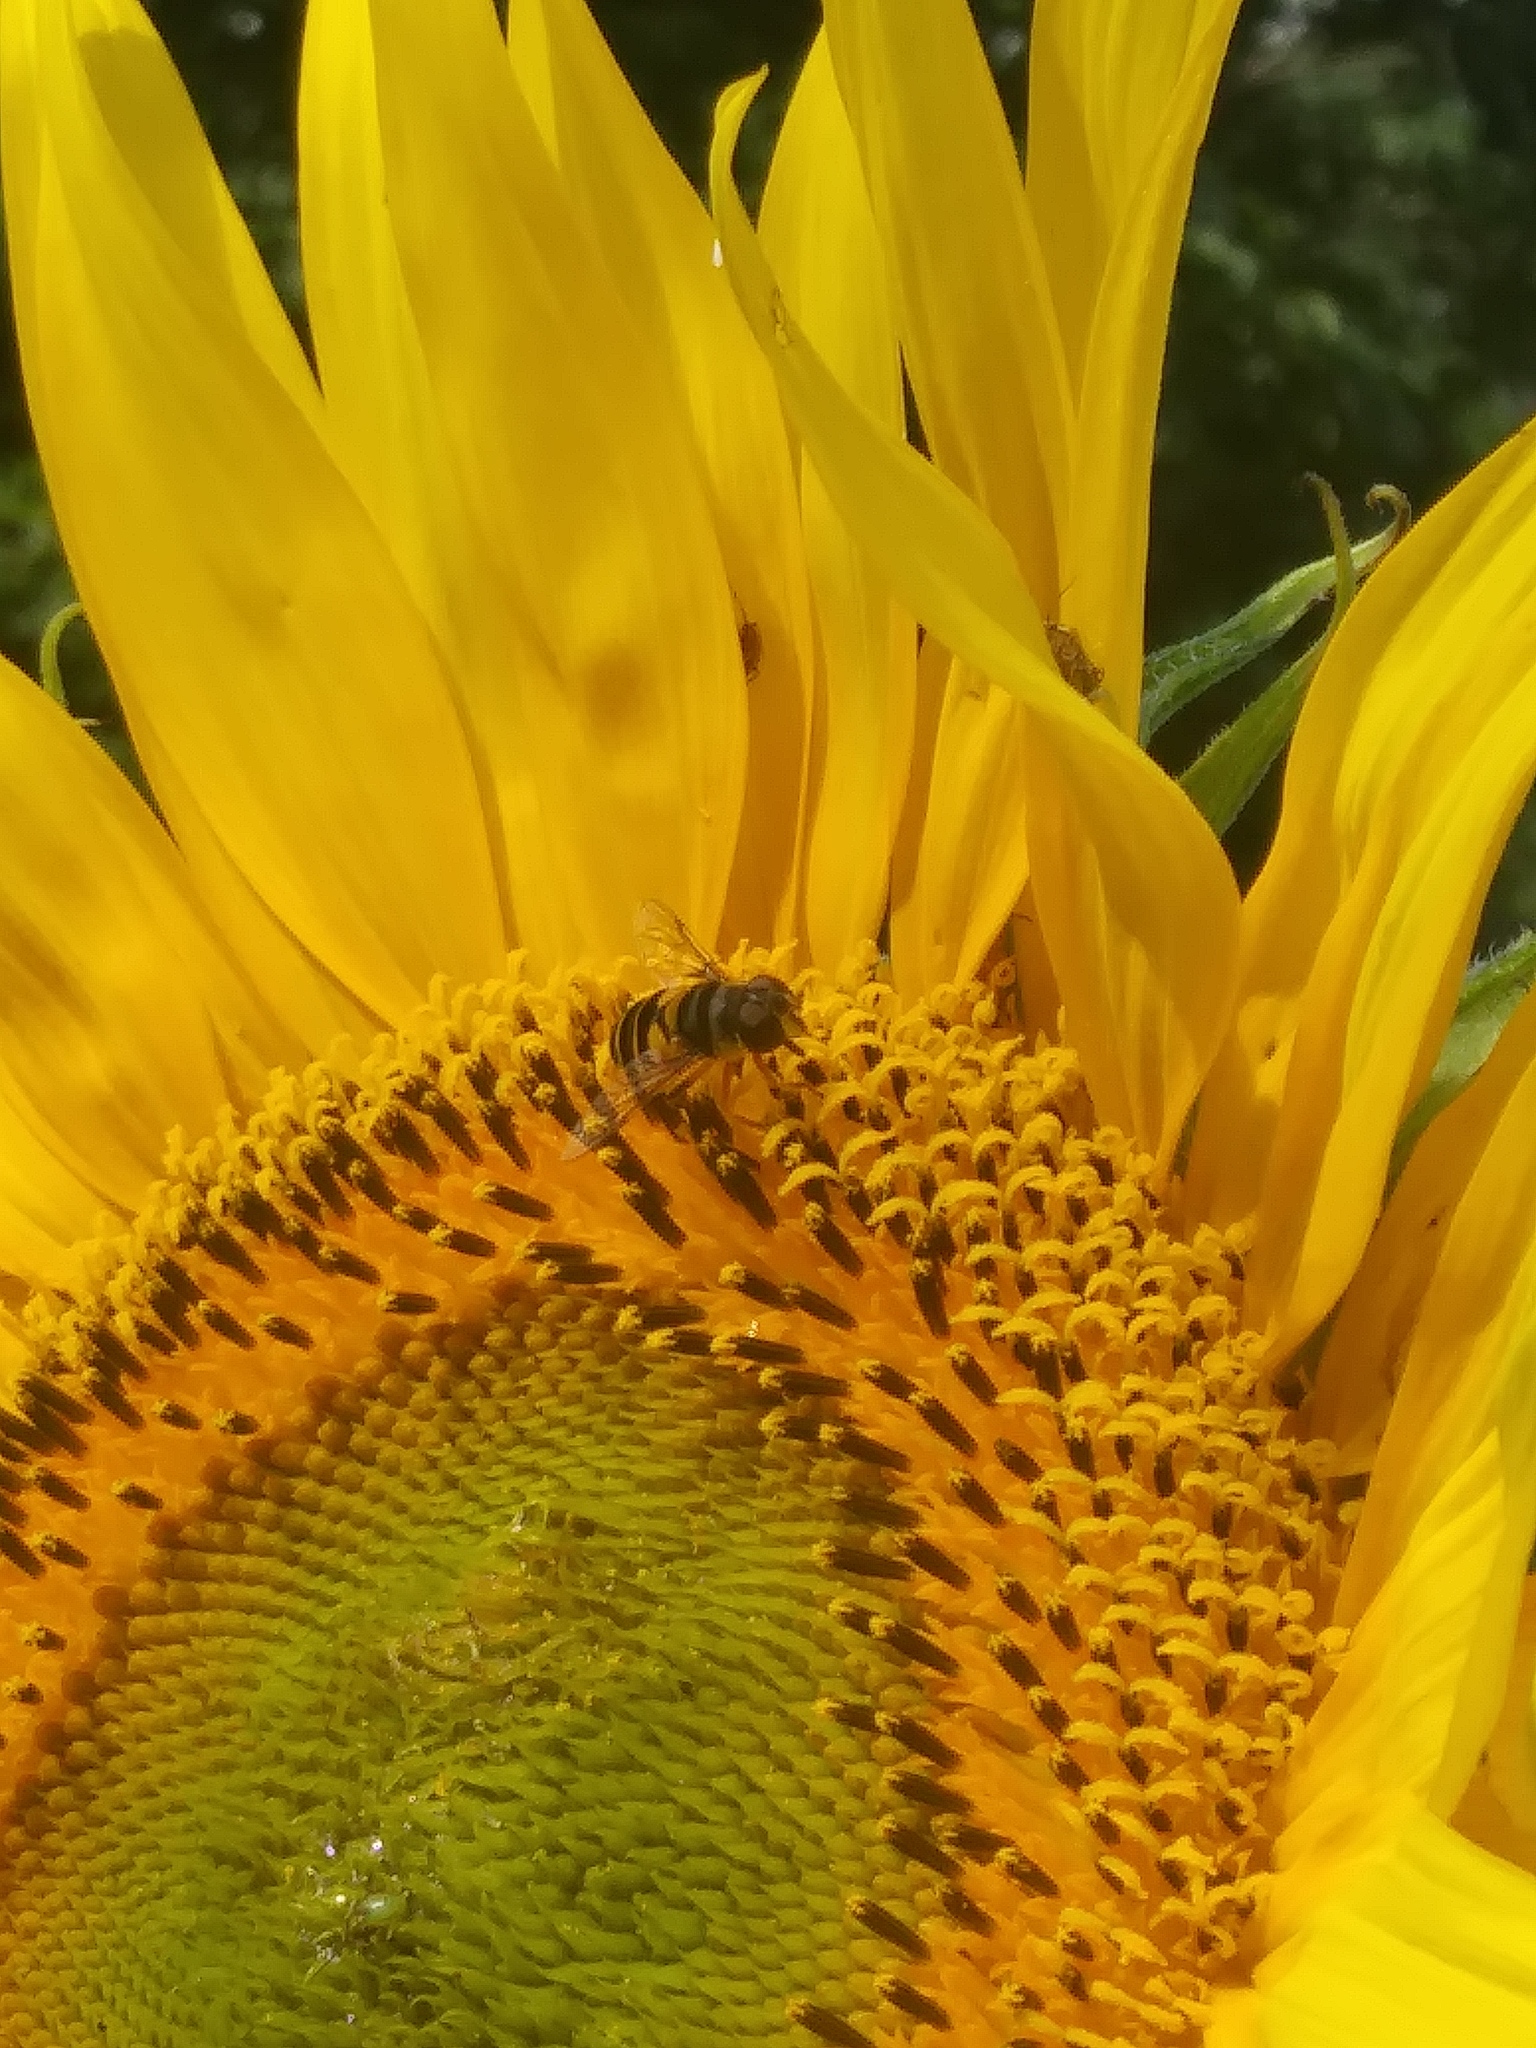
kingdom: Animalia
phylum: Arthropoda
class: Insecta
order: Diptera
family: Syrphidae
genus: Eristalis
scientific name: Eristalis transversa
